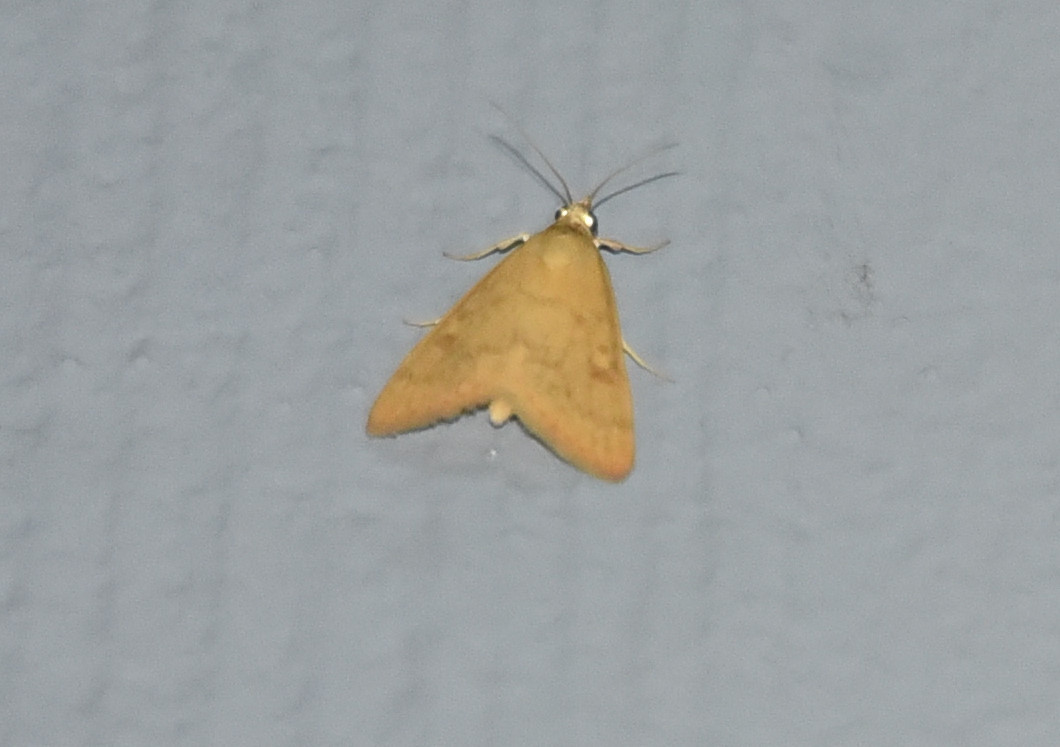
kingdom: Animalia
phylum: Arthropoda
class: Insecta
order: Lepidoptera
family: Crambidae
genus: Achyra
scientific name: Achyra rantalis
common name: Garden webworm
